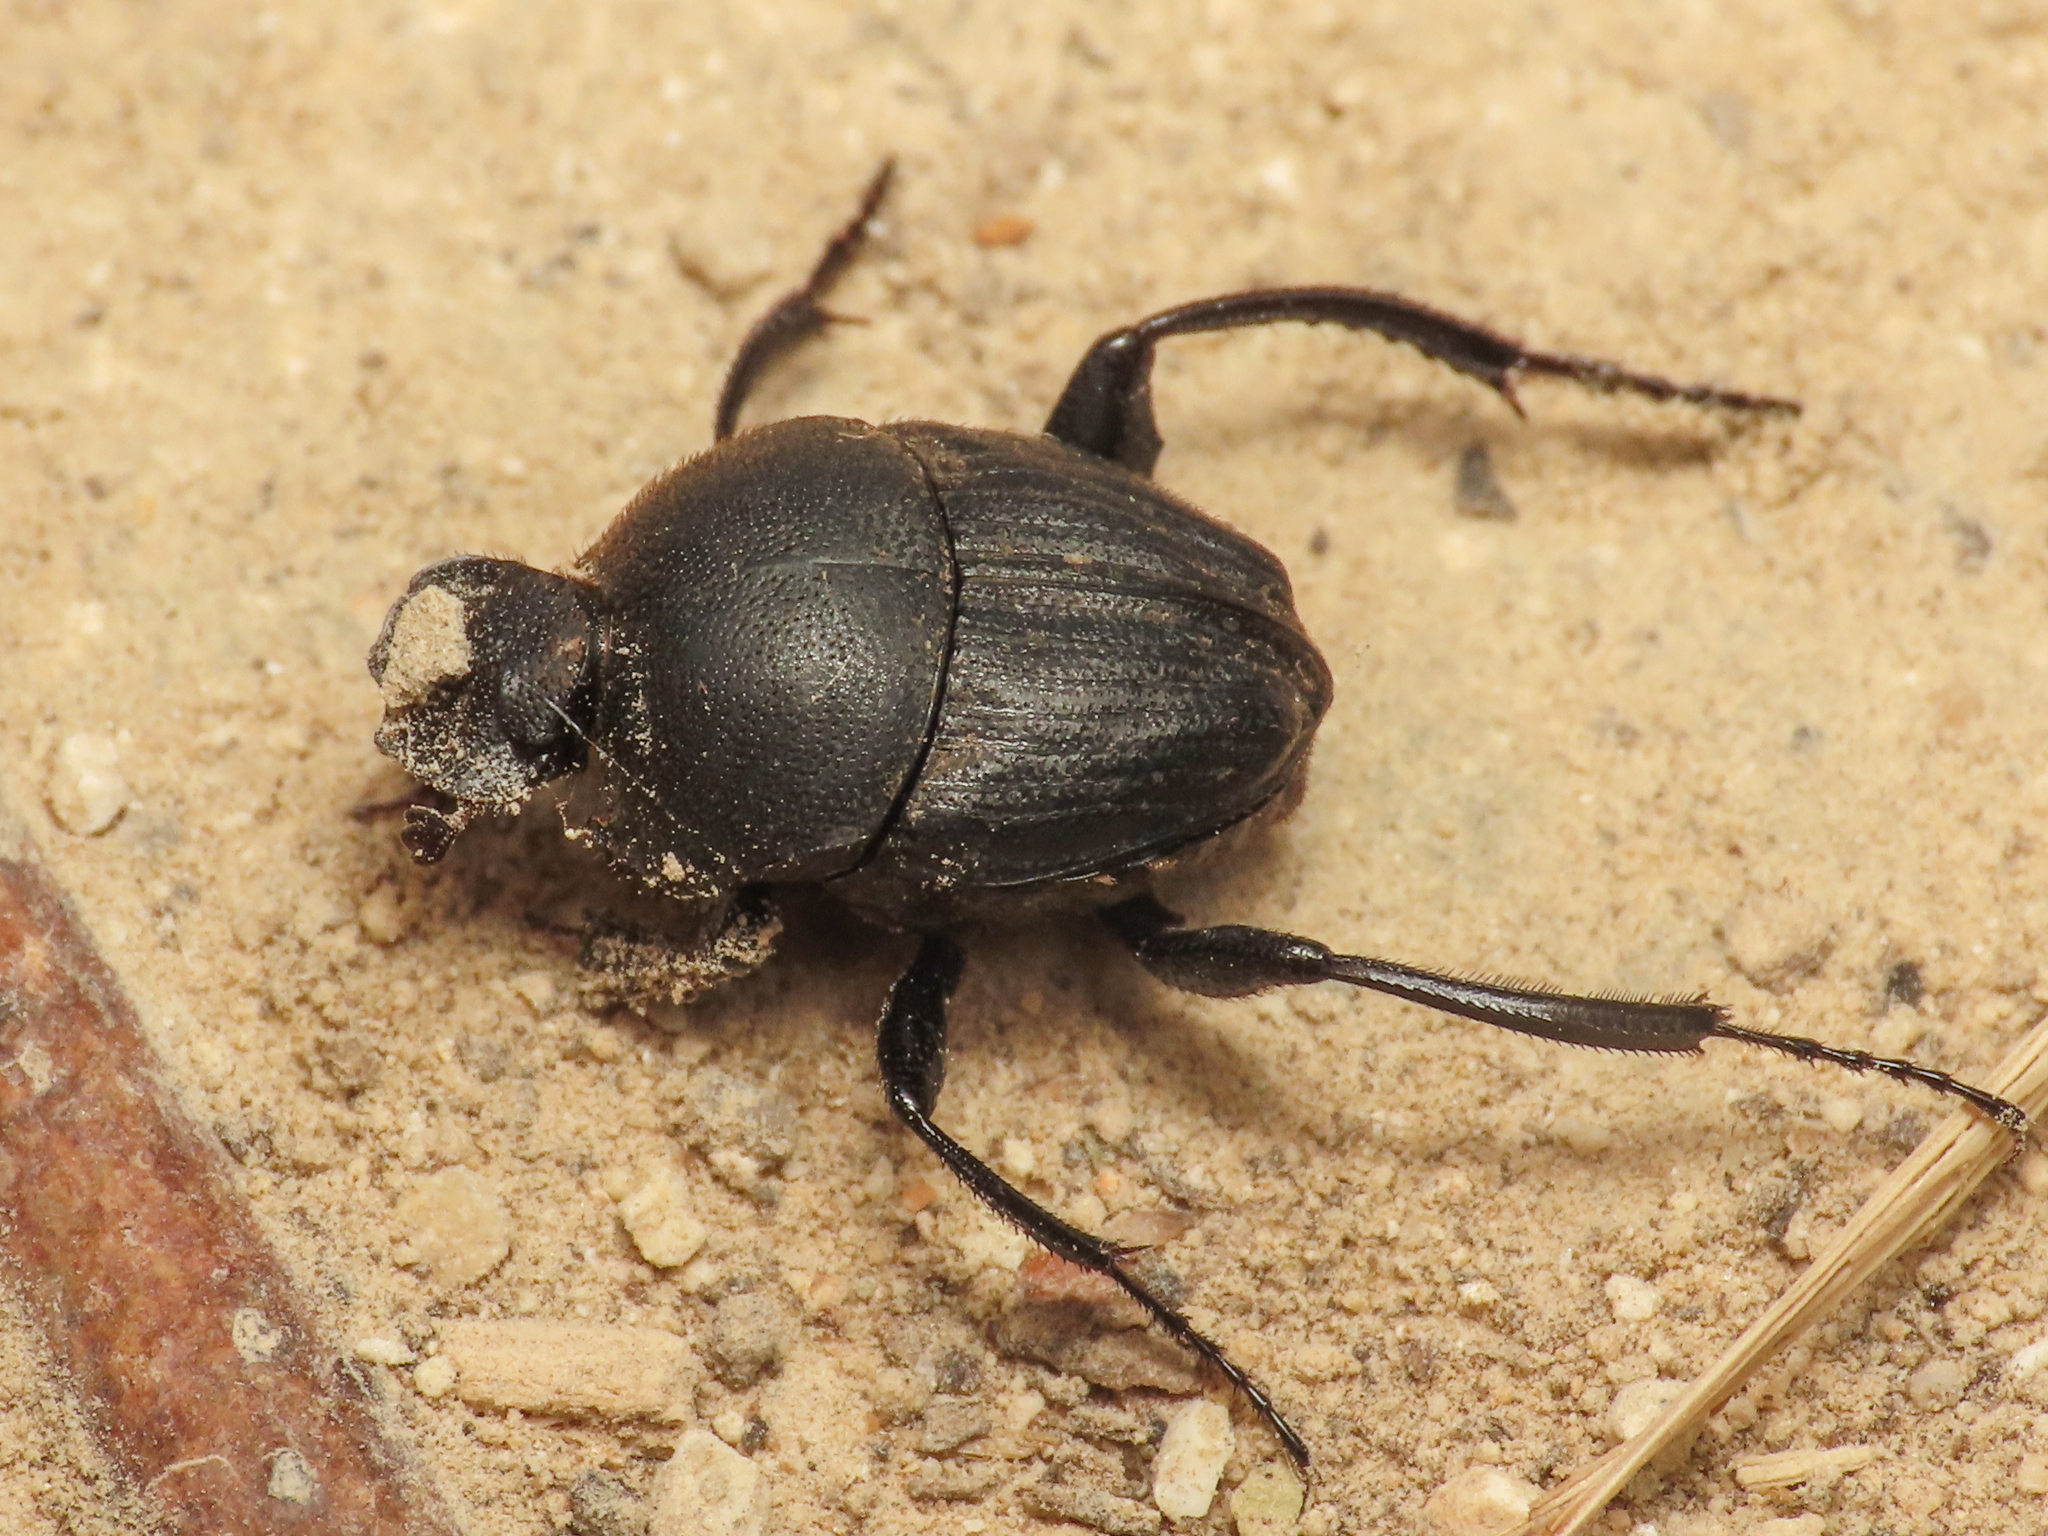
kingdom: Animalia
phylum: Arthropoda
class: Insecta
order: Coleoptera
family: Scarabaeidae
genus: Sisyphus
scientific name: Sisyphus schaefferi
